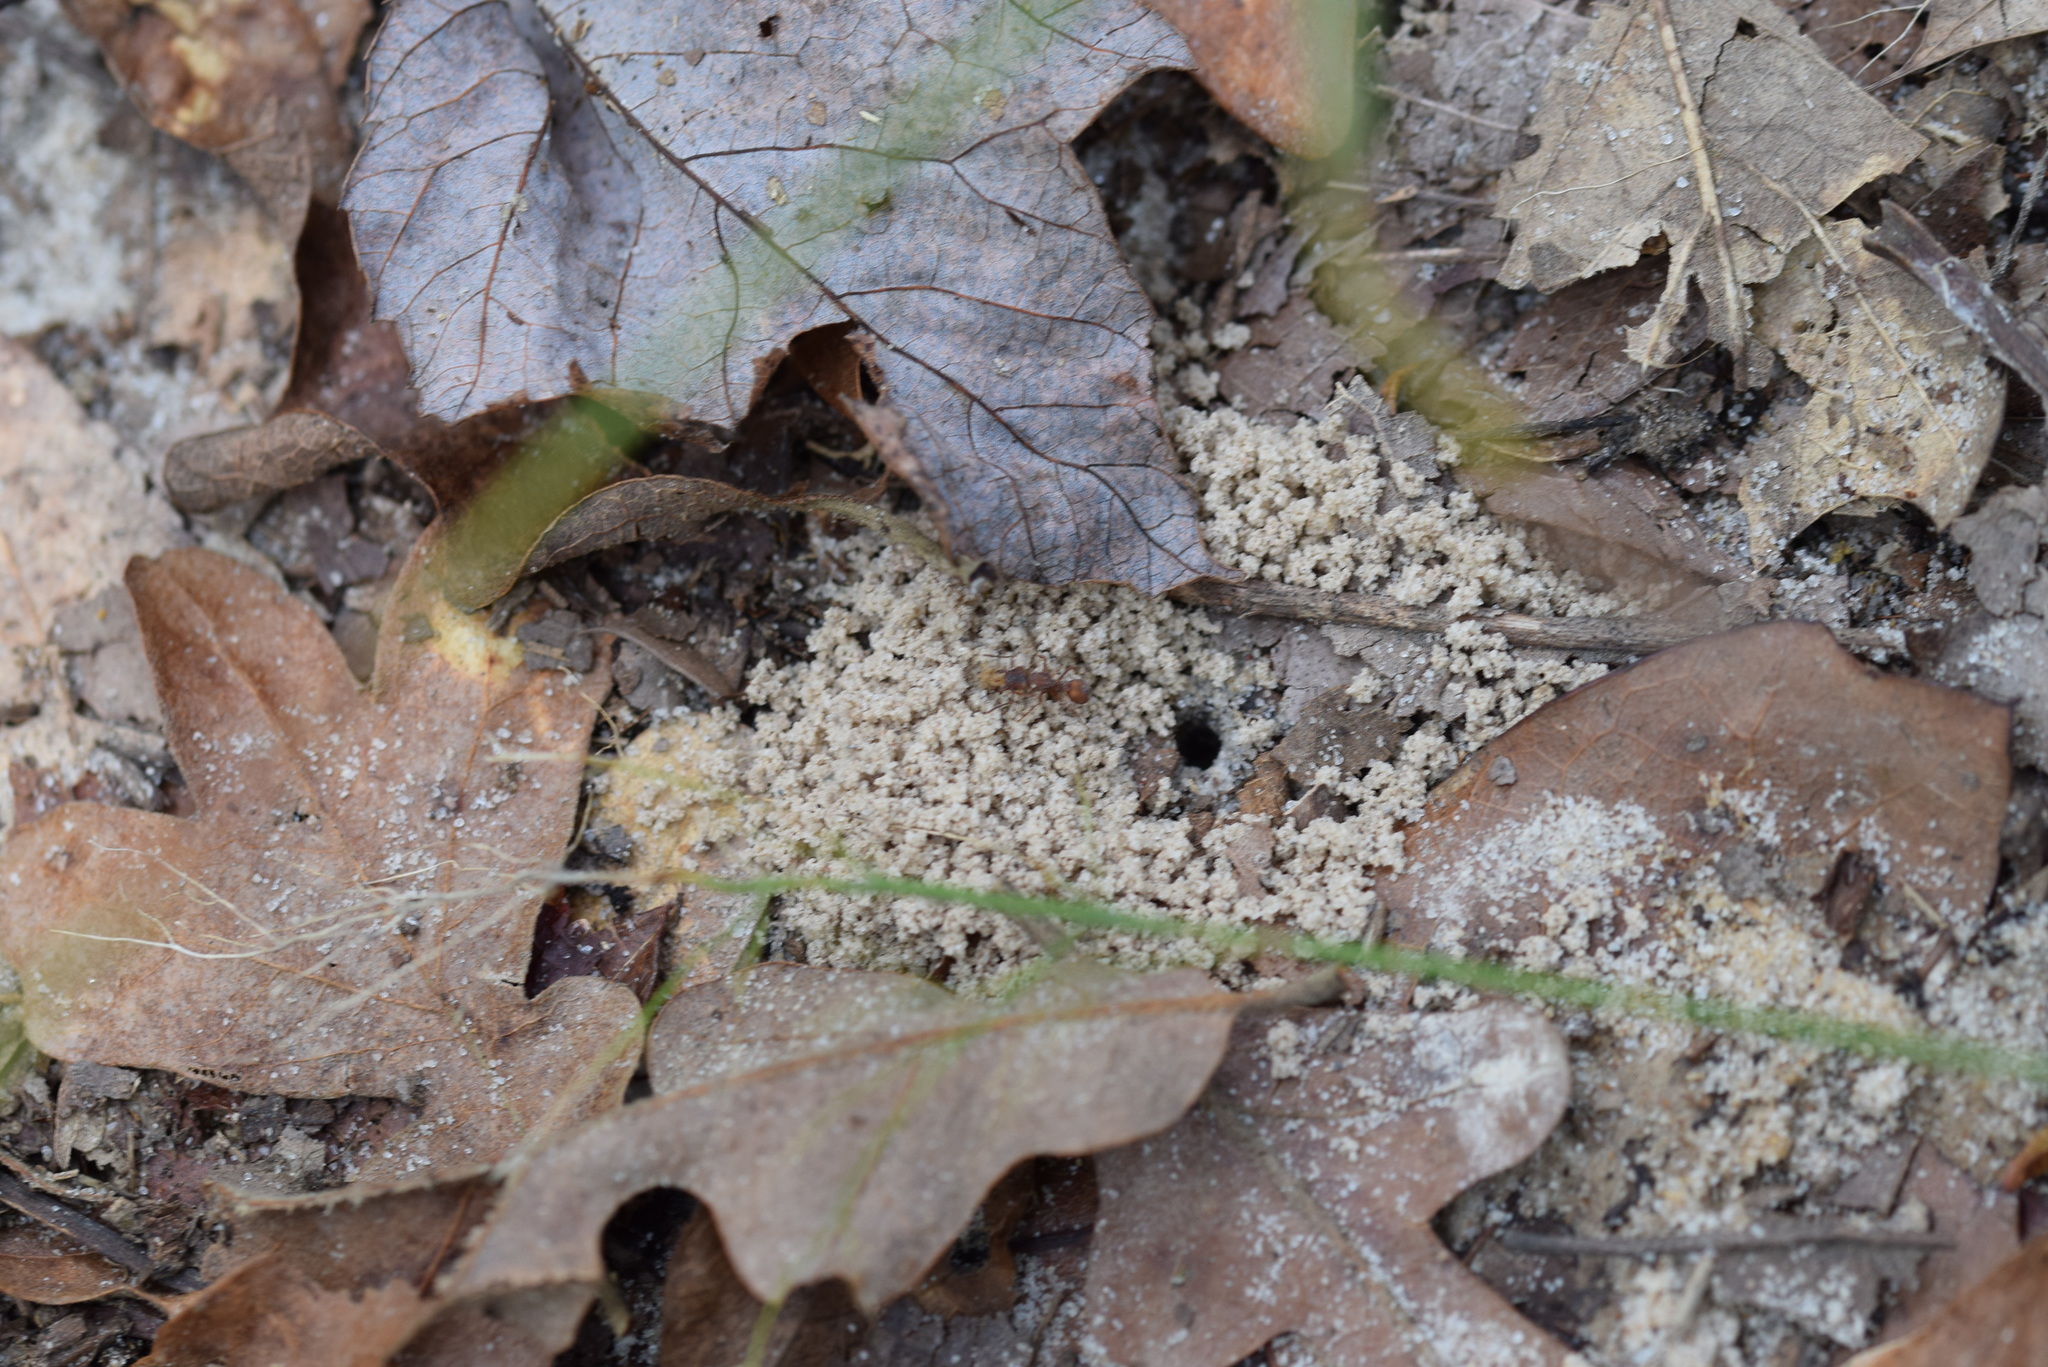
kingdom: Animalia
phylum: Arthropoda
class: Insecta
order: Hymenoptera
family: Formicidae
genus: Trachymyrmex
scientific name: Trachymyrmex septentrionalis
